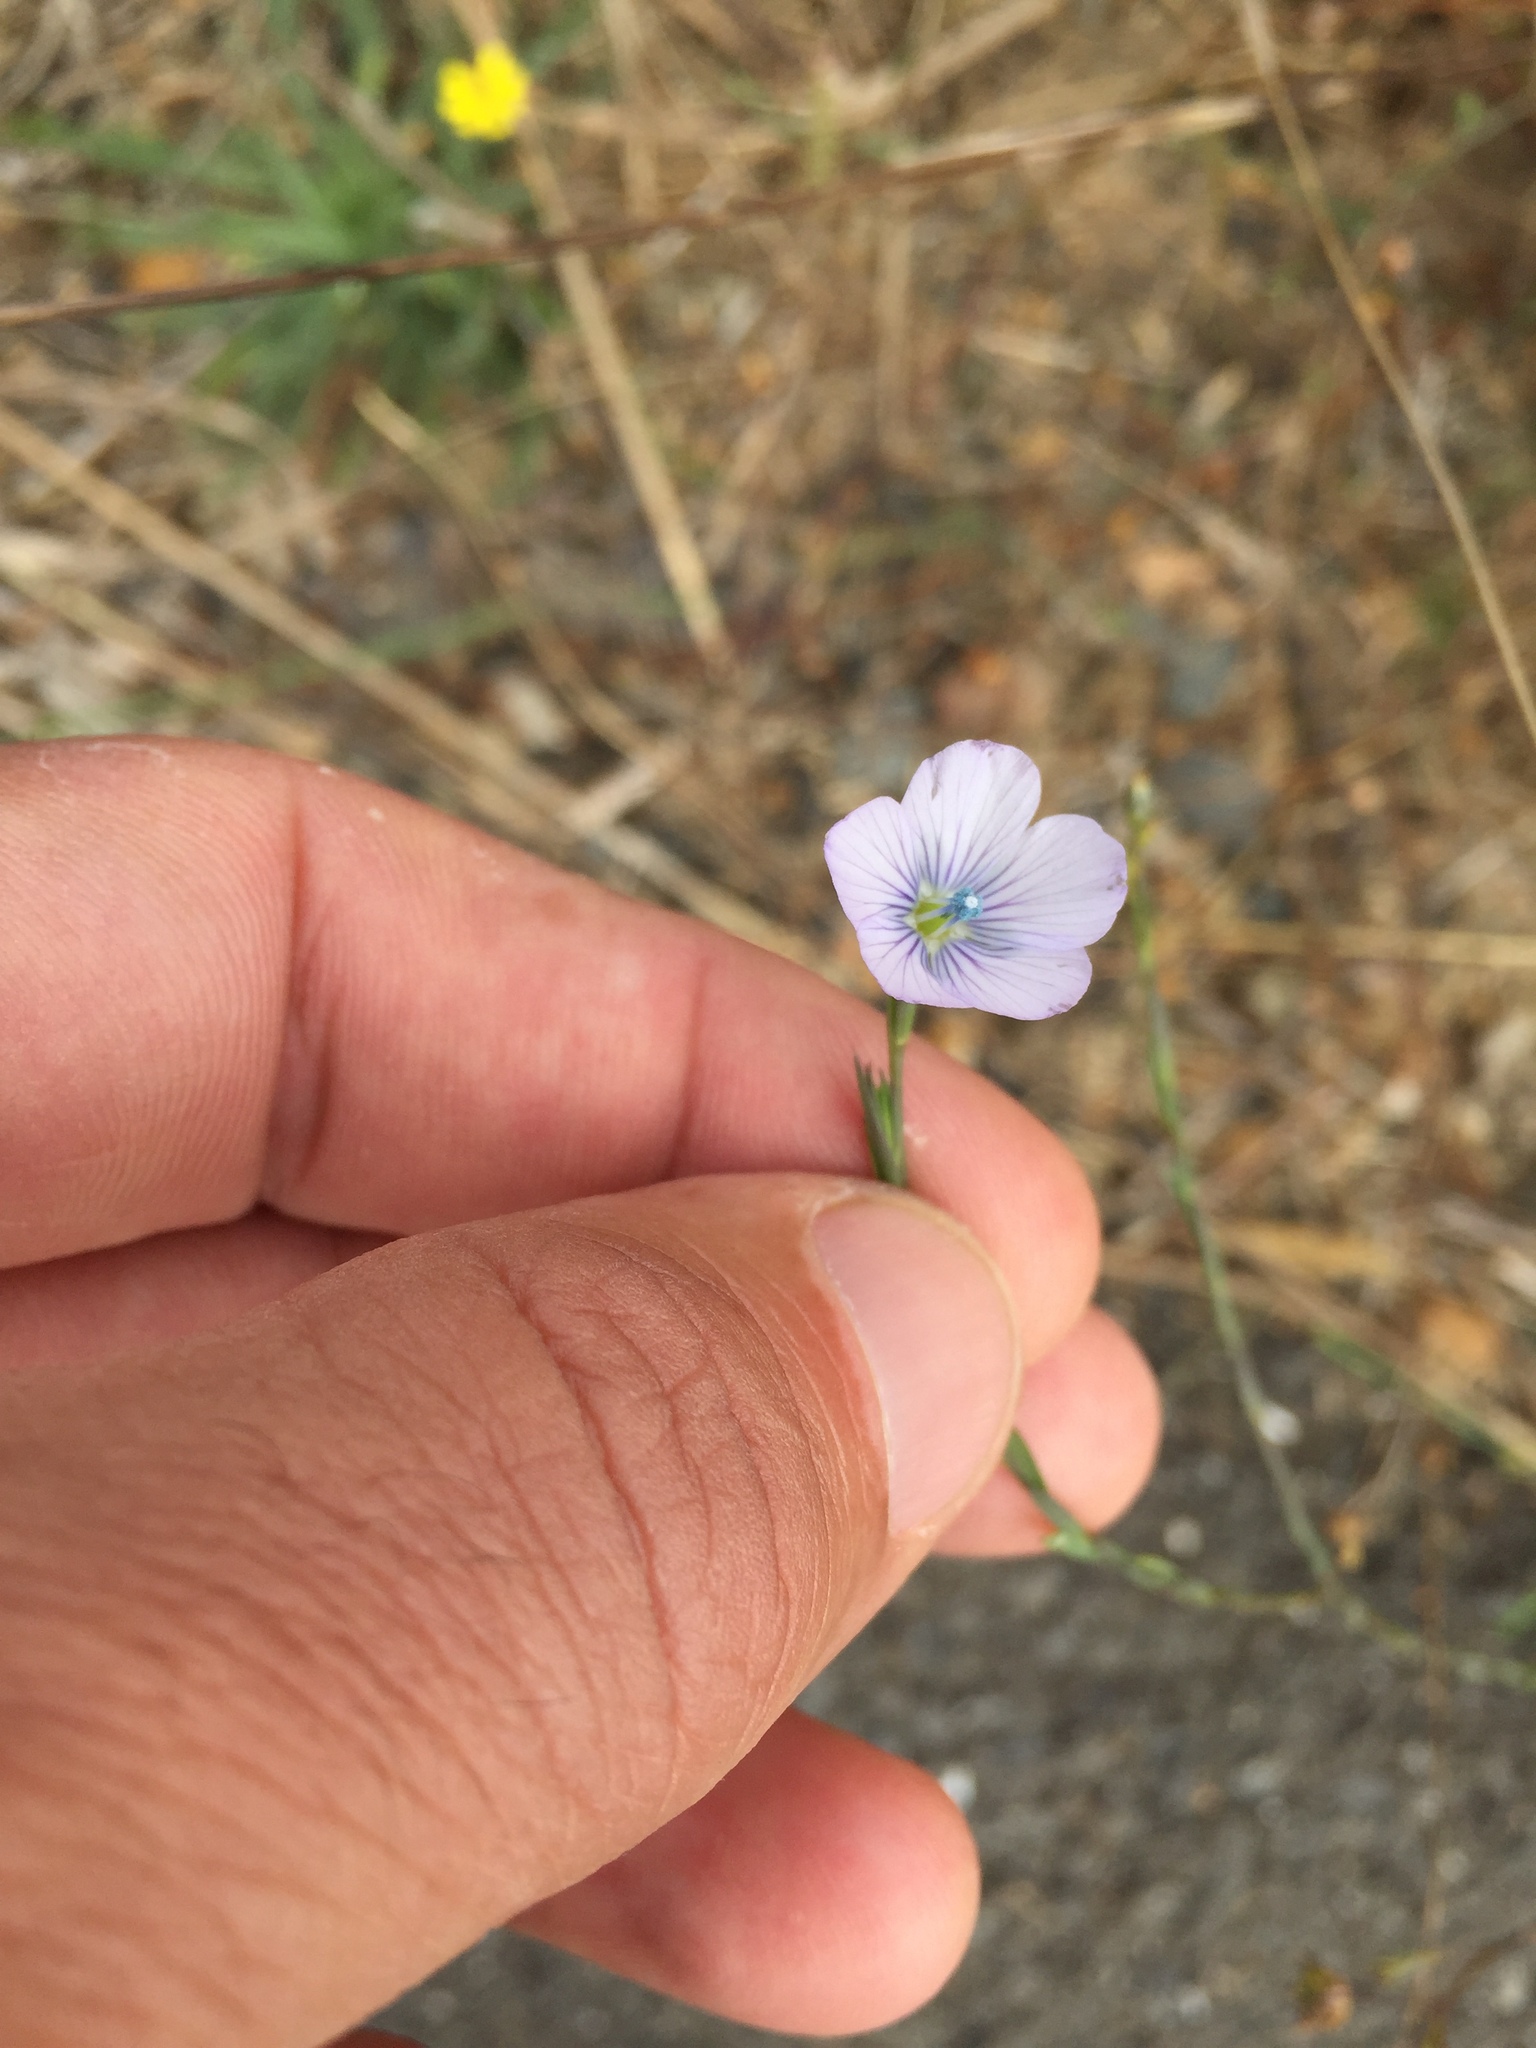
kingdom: Plantae
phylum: Tracheophyta
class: Magnoliopsida
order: Malpighiales
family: Linaceae
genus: Linum
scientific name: Linum bienne
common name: Pale flax
